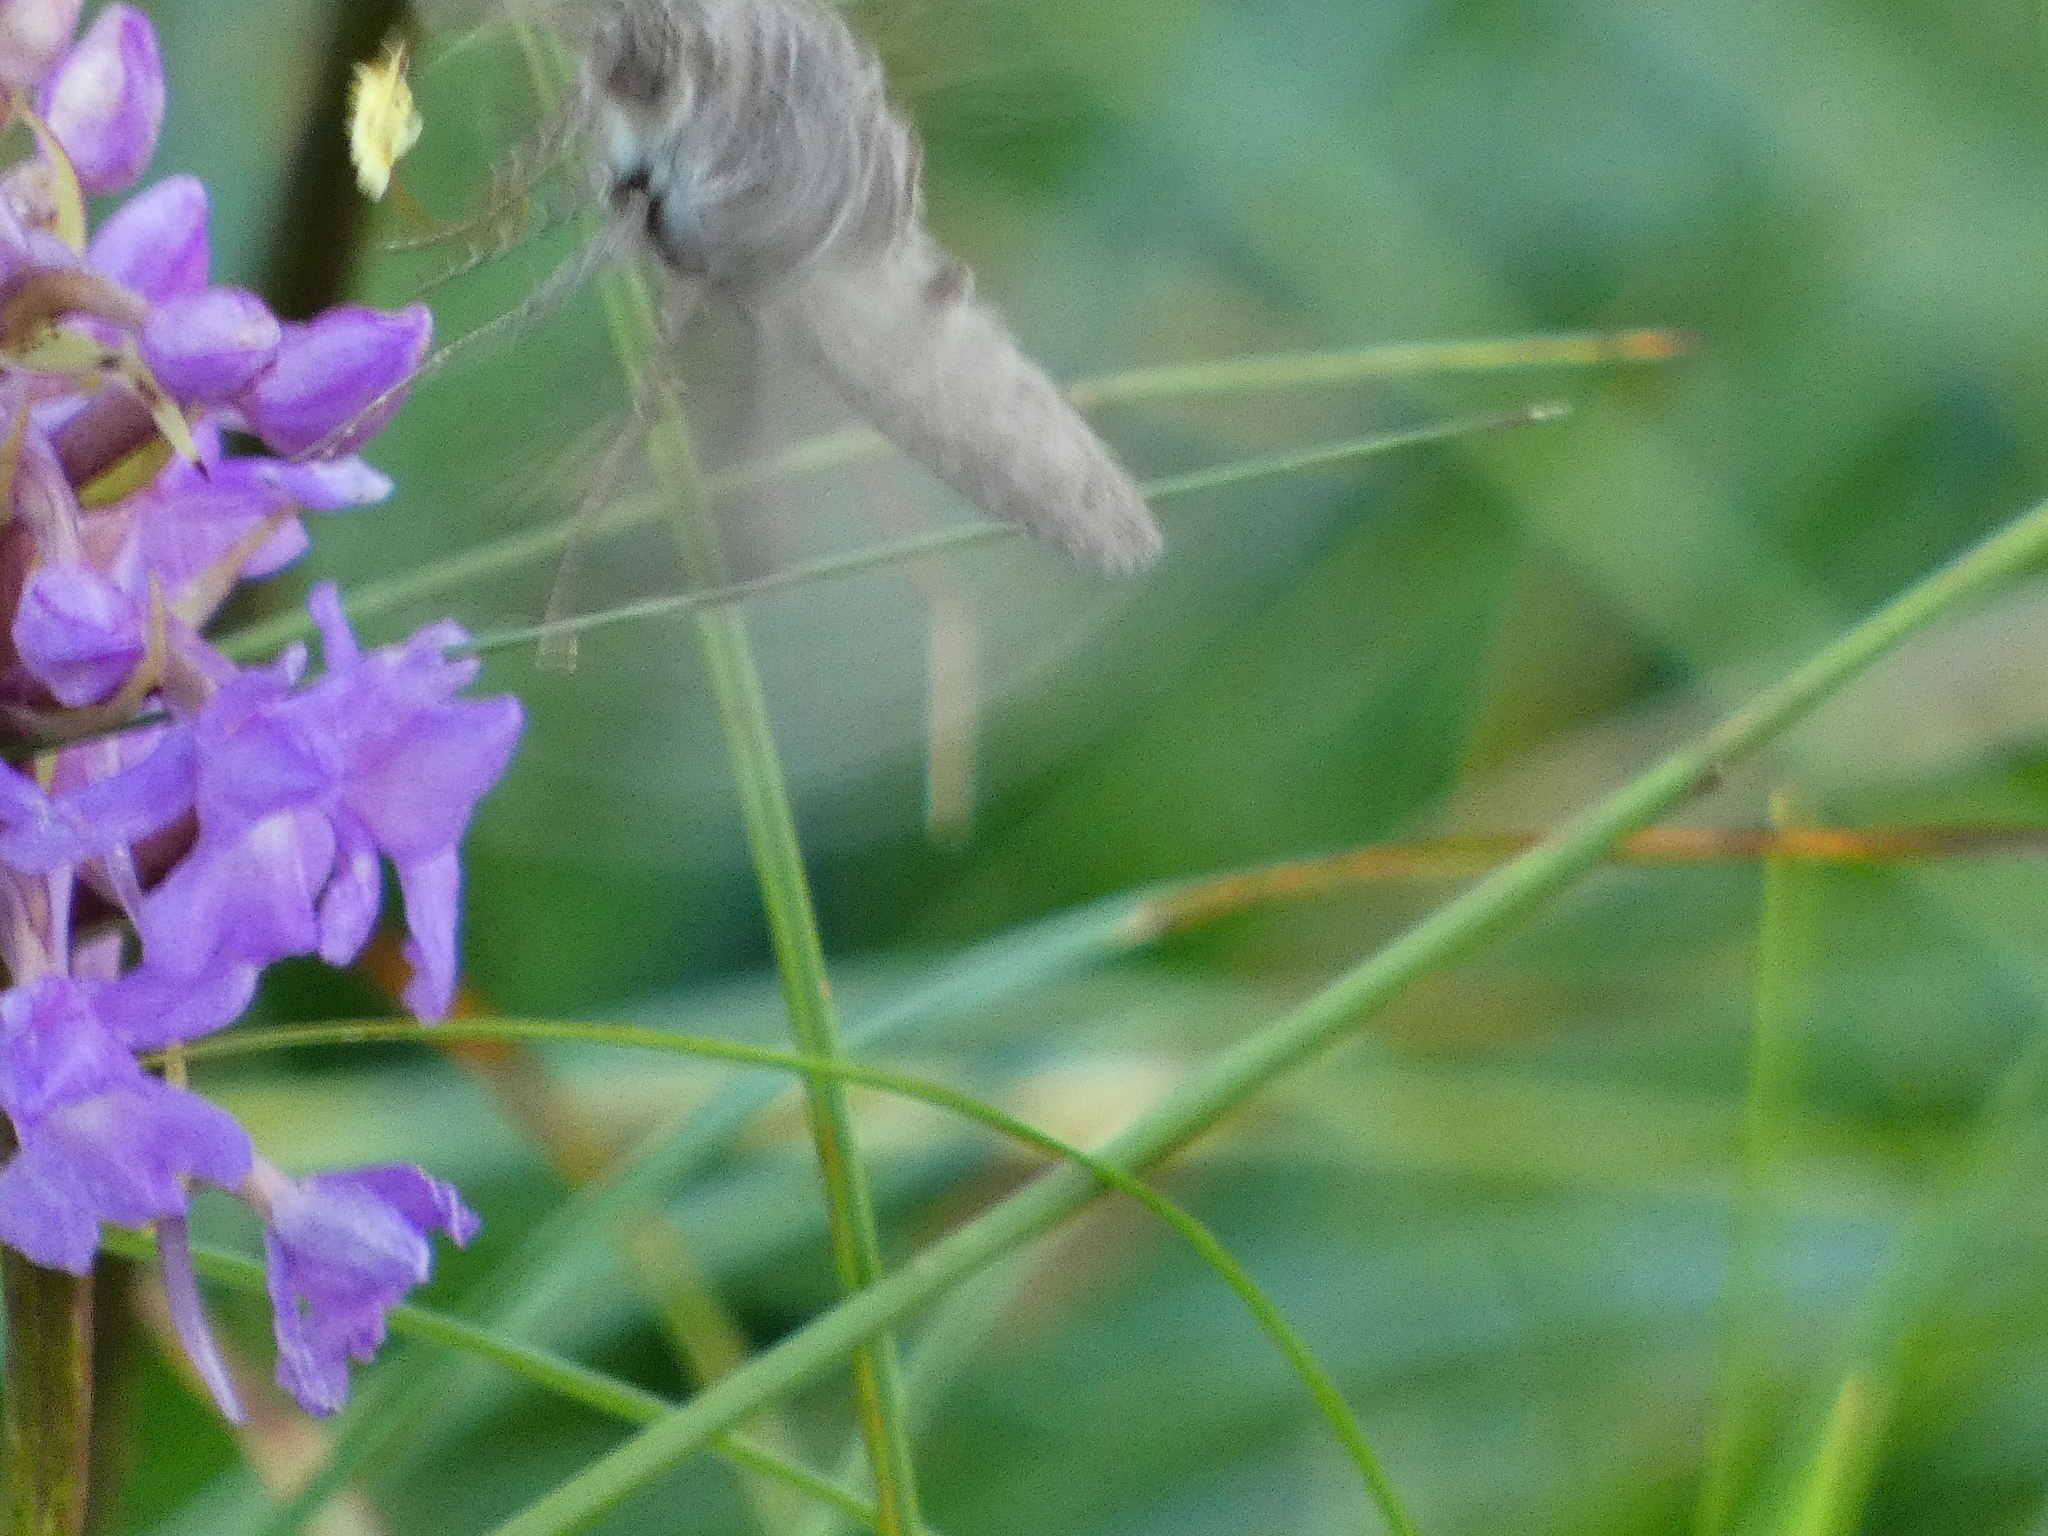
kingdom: Animalia
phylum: Arthropoda
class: Insecta
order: Lepidoptera
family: Noctuidae
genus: Autographa
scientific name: Autographa gamma
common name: Silver y
